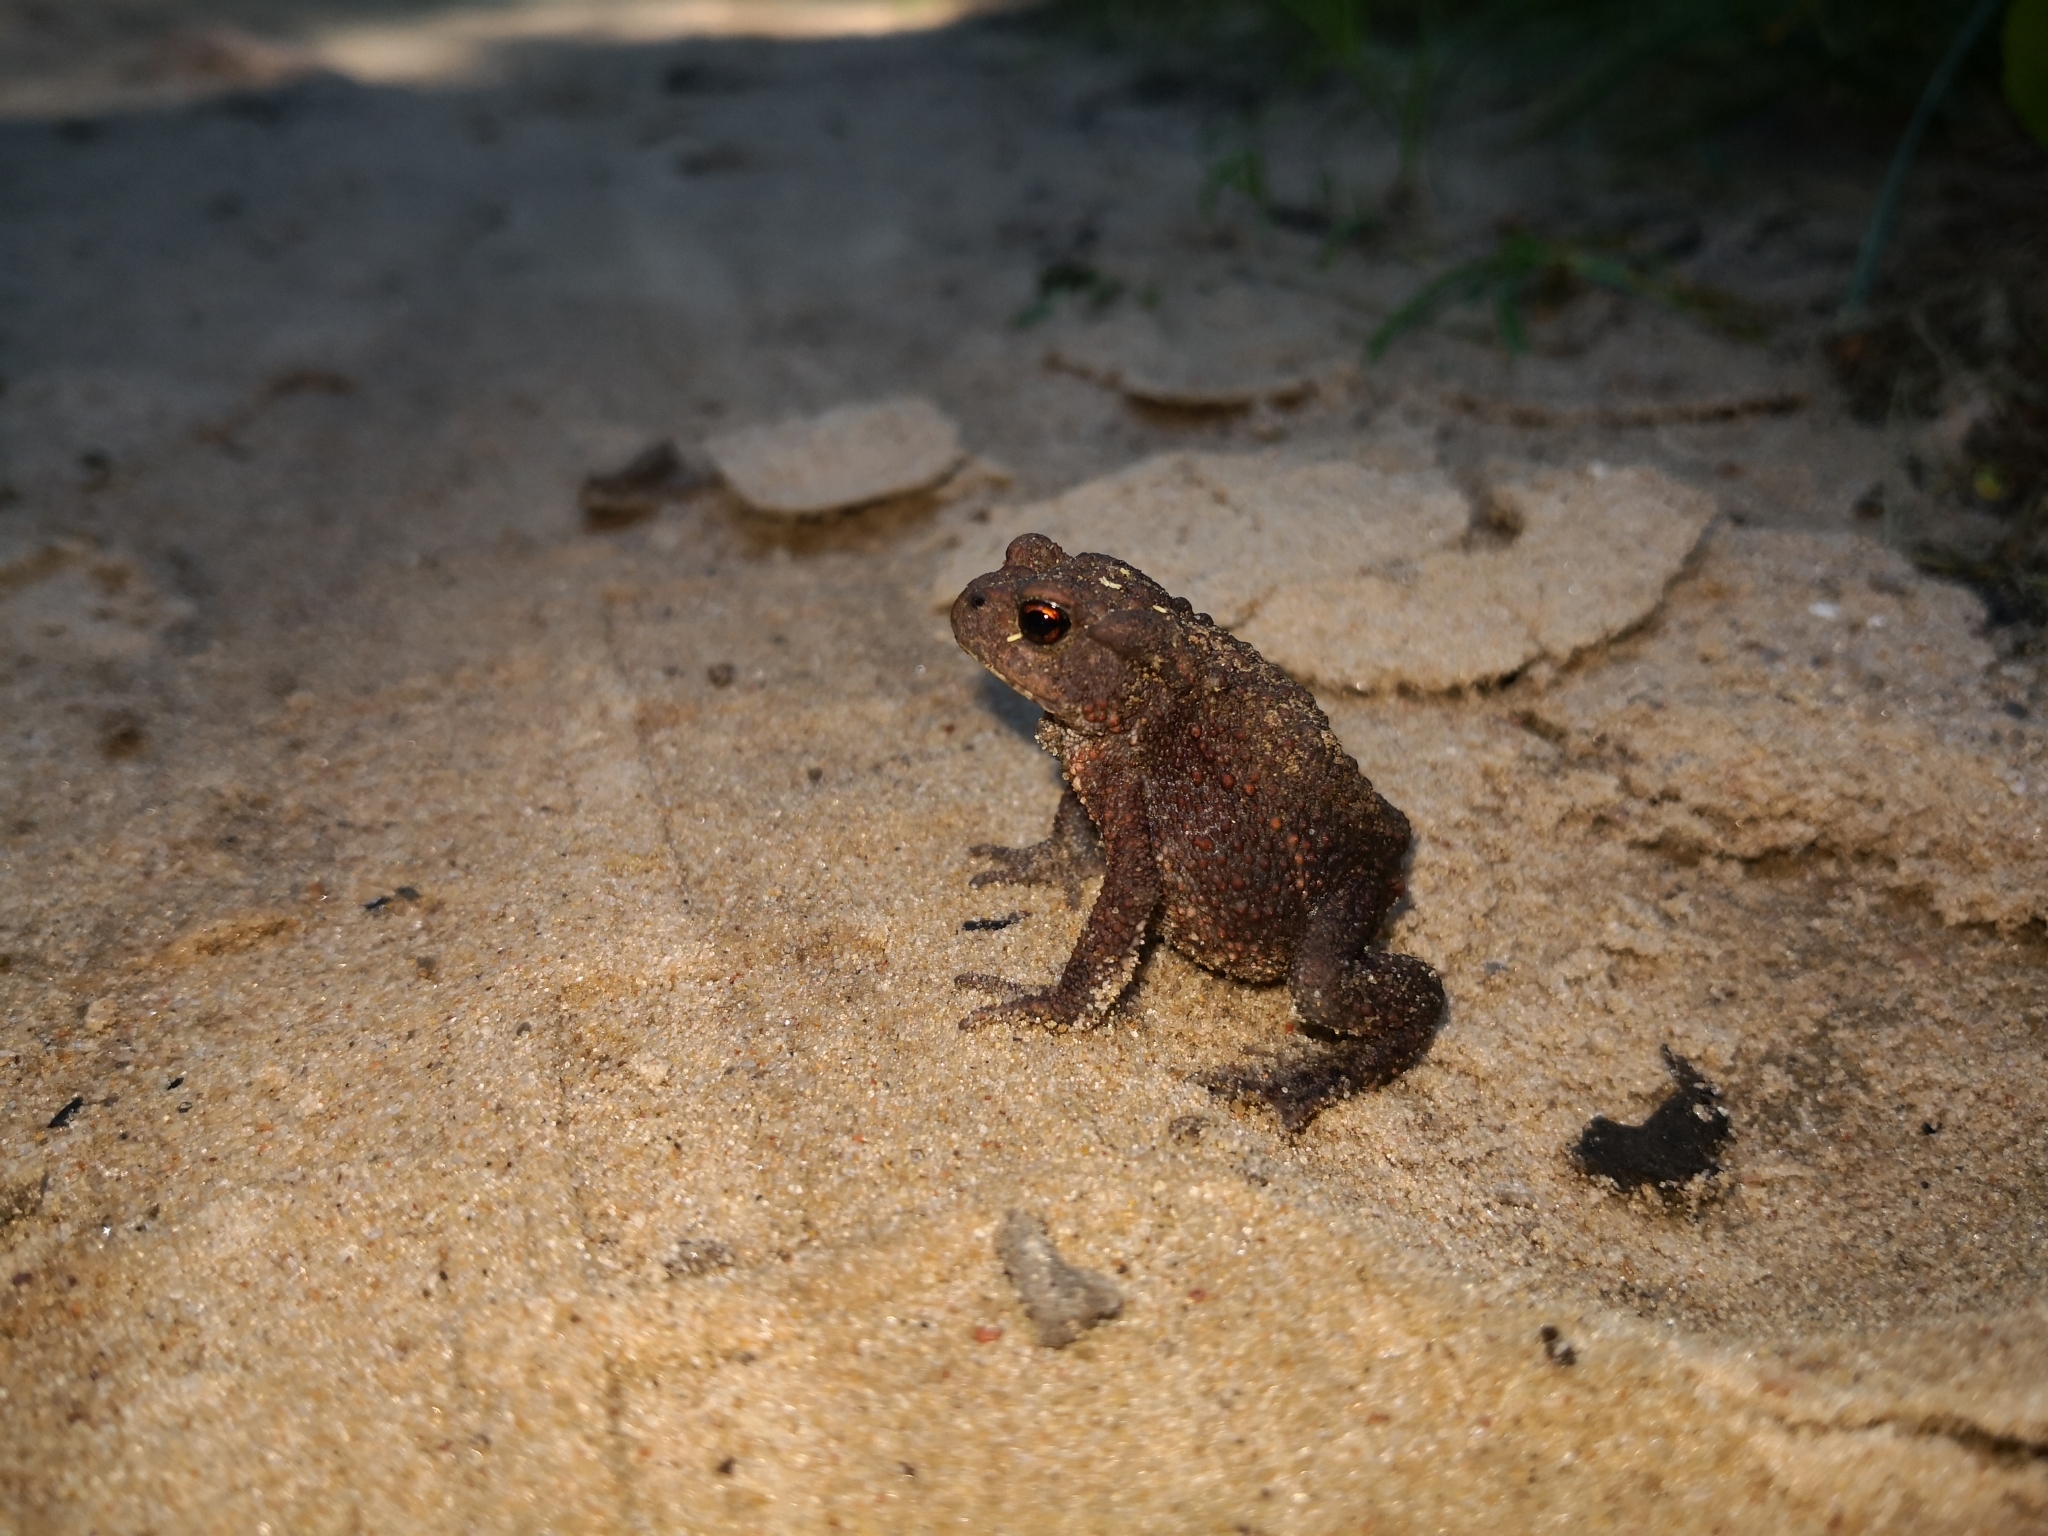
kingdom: Animalia
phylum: Chordata
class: Amphibia
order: Anura
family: Bufonidae
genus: Bufo
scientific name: Bufo bufo
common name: Common toad
